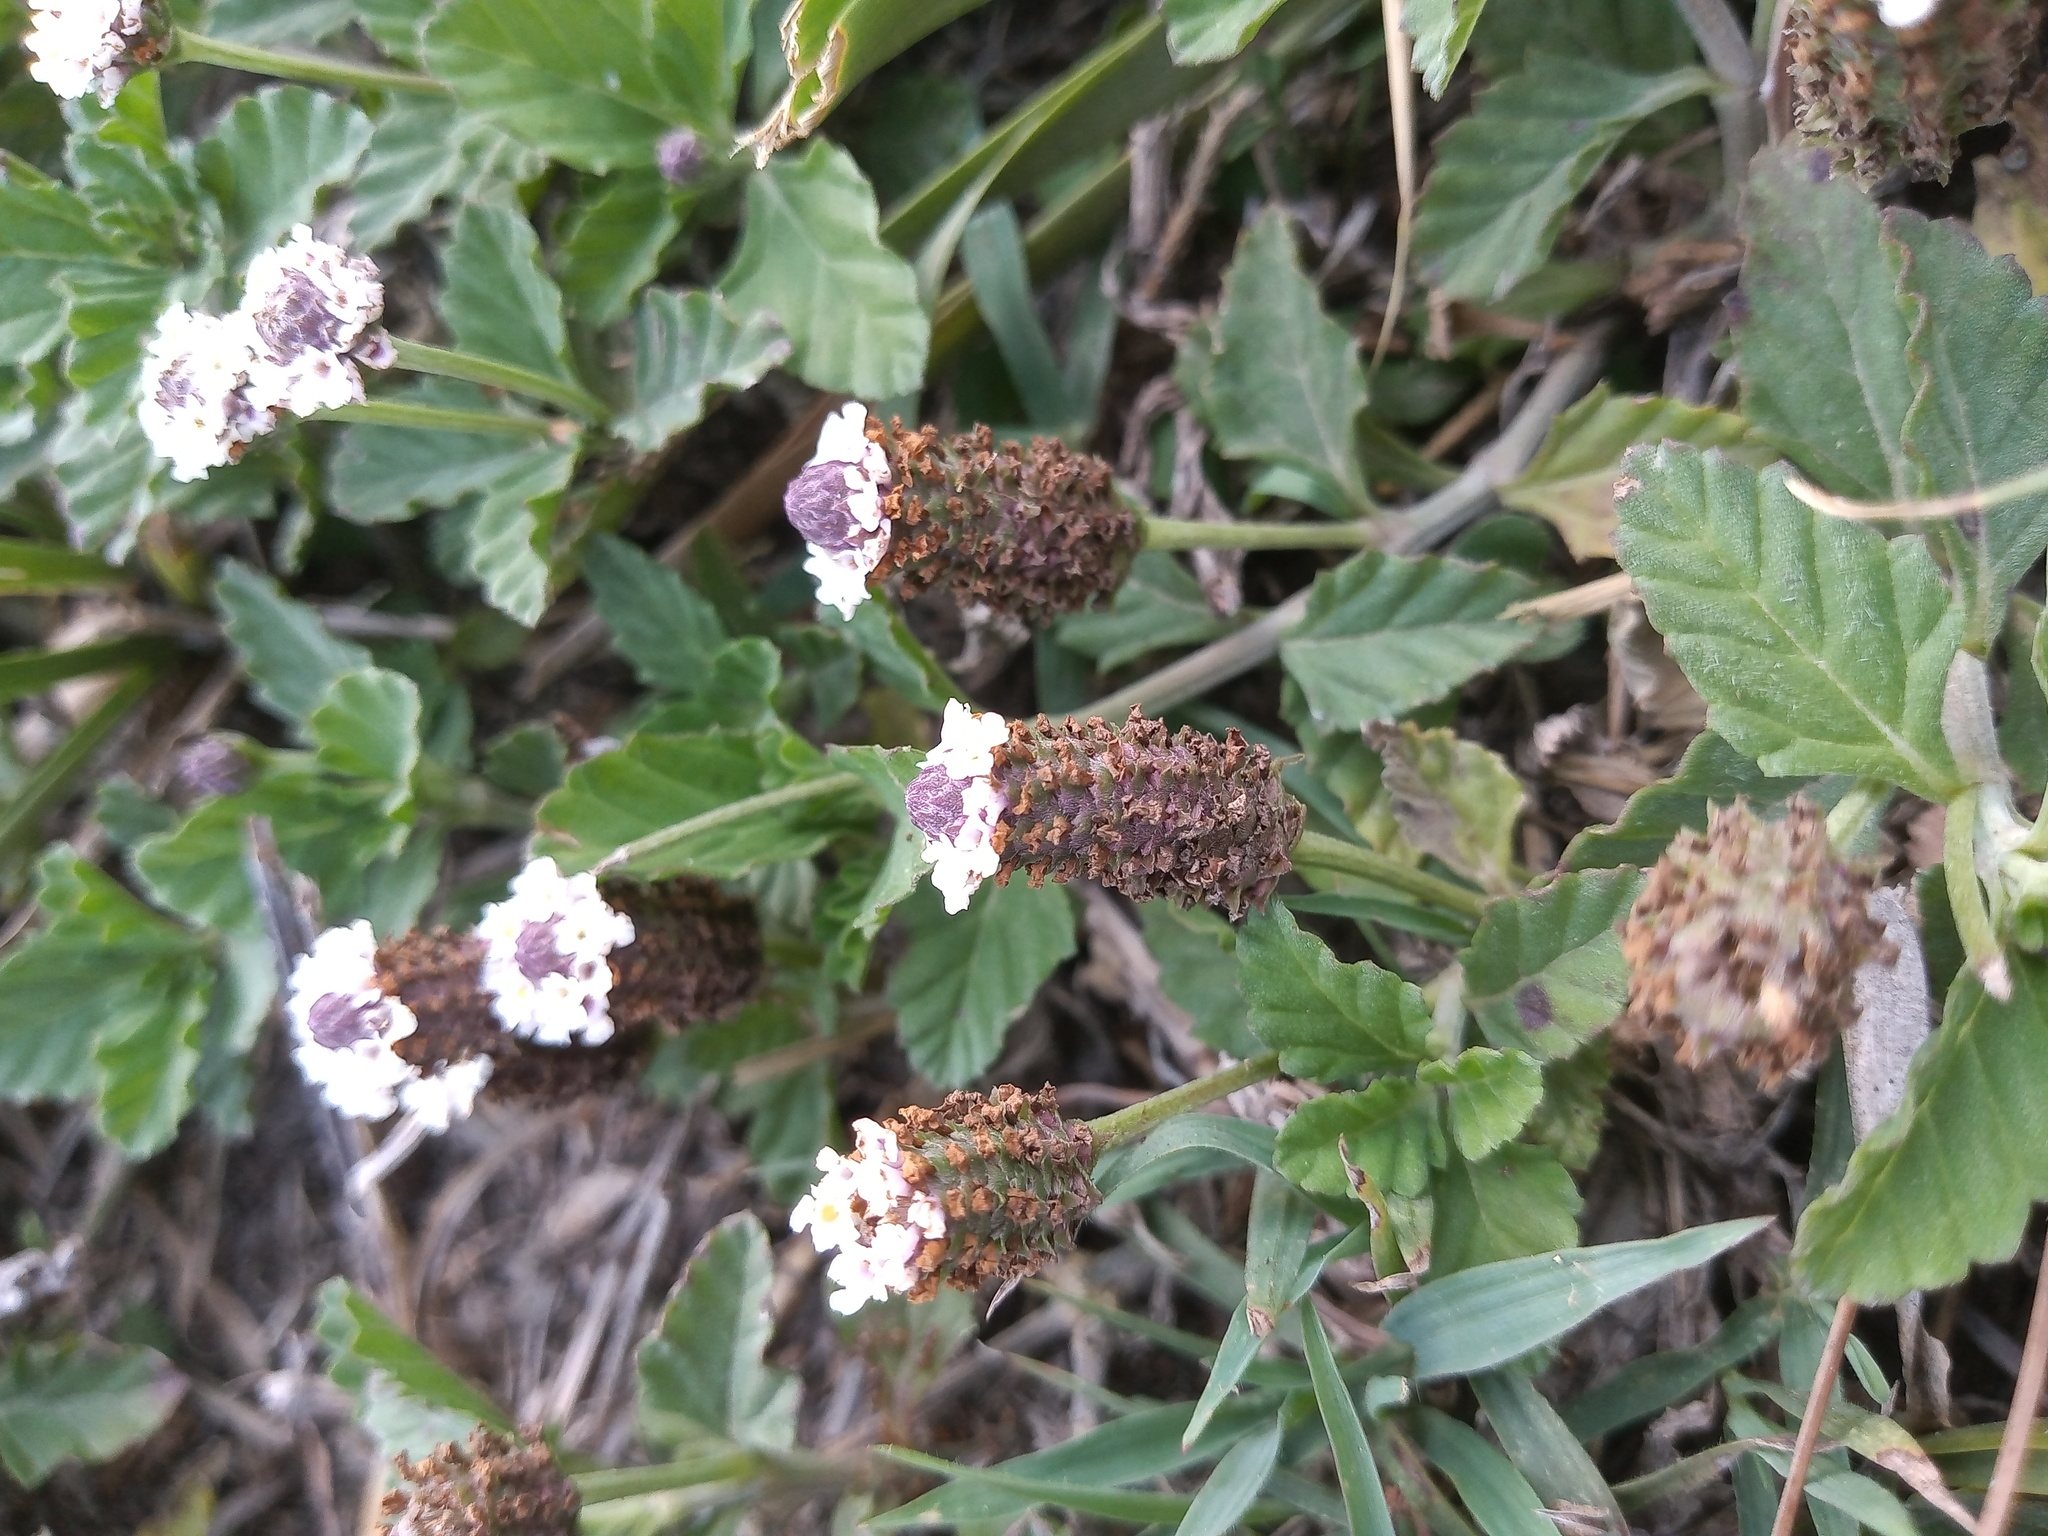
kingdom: Plantae
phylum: Tracheophyta
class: Magnoliopsida
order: Lamiales
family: Verbenaceae
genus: Phyla
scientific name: Phyla nodiflora
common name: Frogfruit
